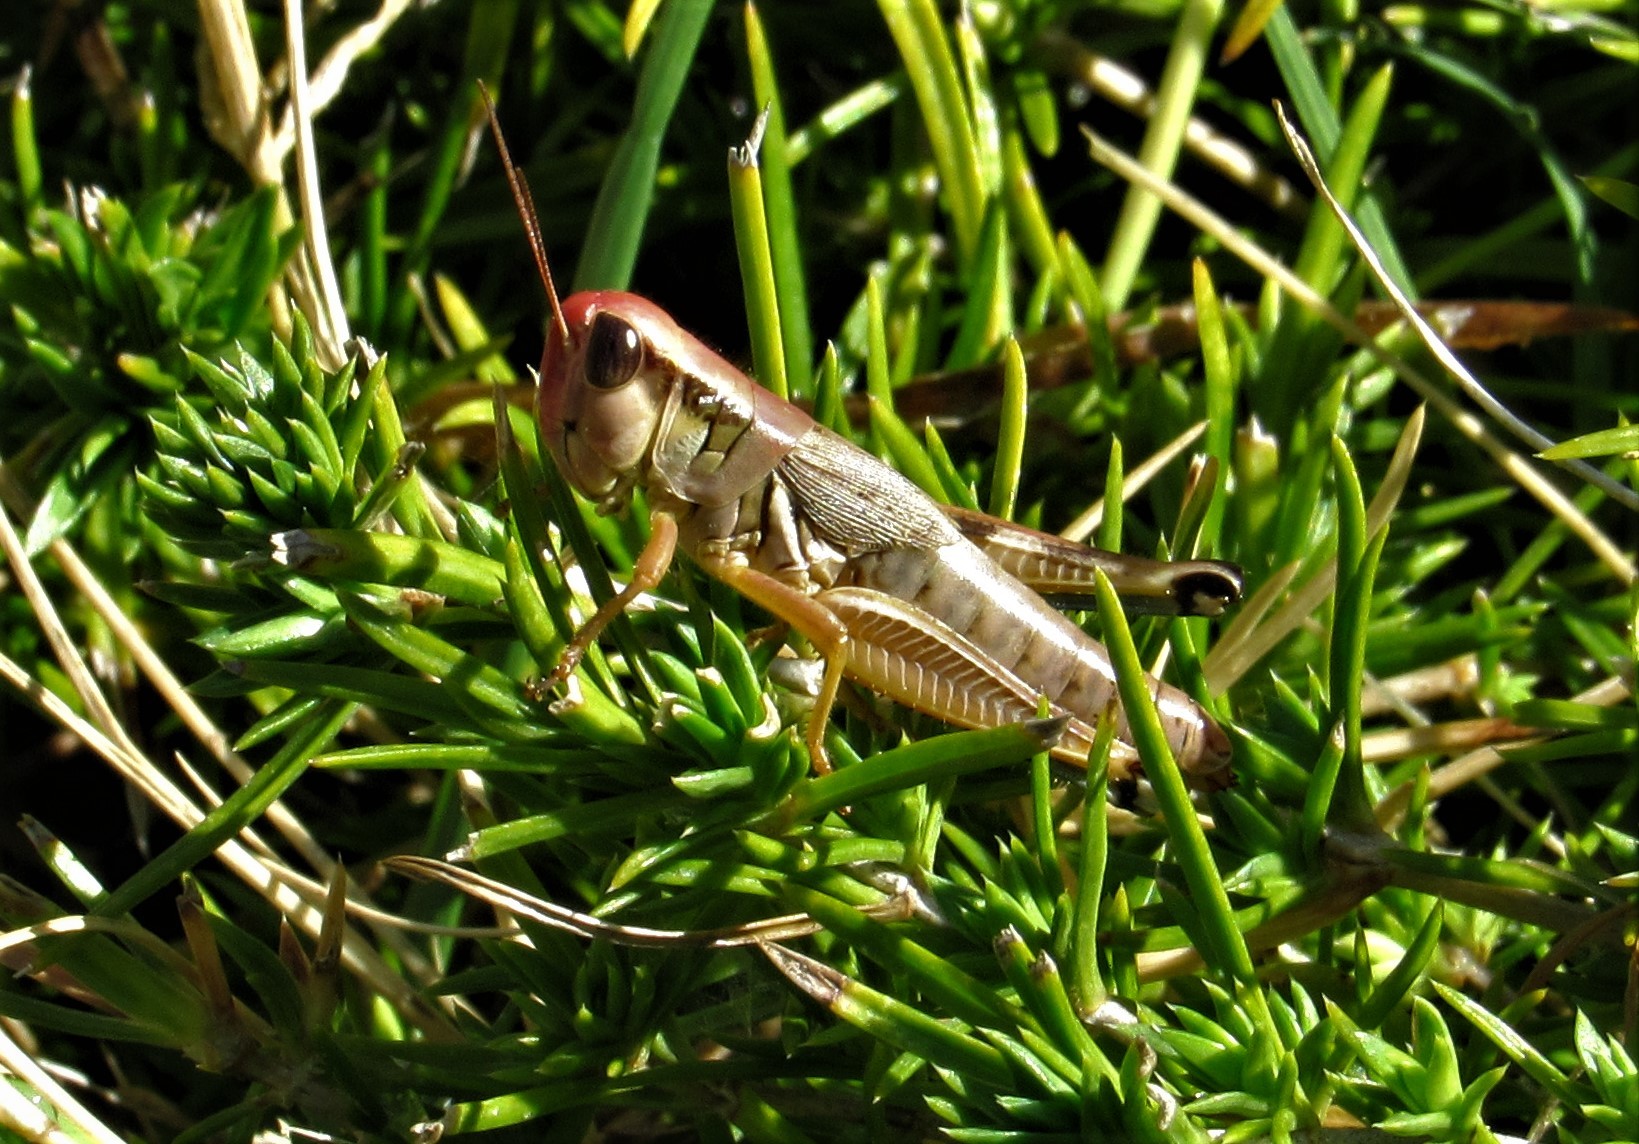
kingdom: Animalia
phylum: Arthropoda
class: Insecta
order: Orthoptera
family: Acrididae
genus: Phoetaliotes
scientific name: Phoetaliotes nebrascensis
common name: Large-headed grasshopper
